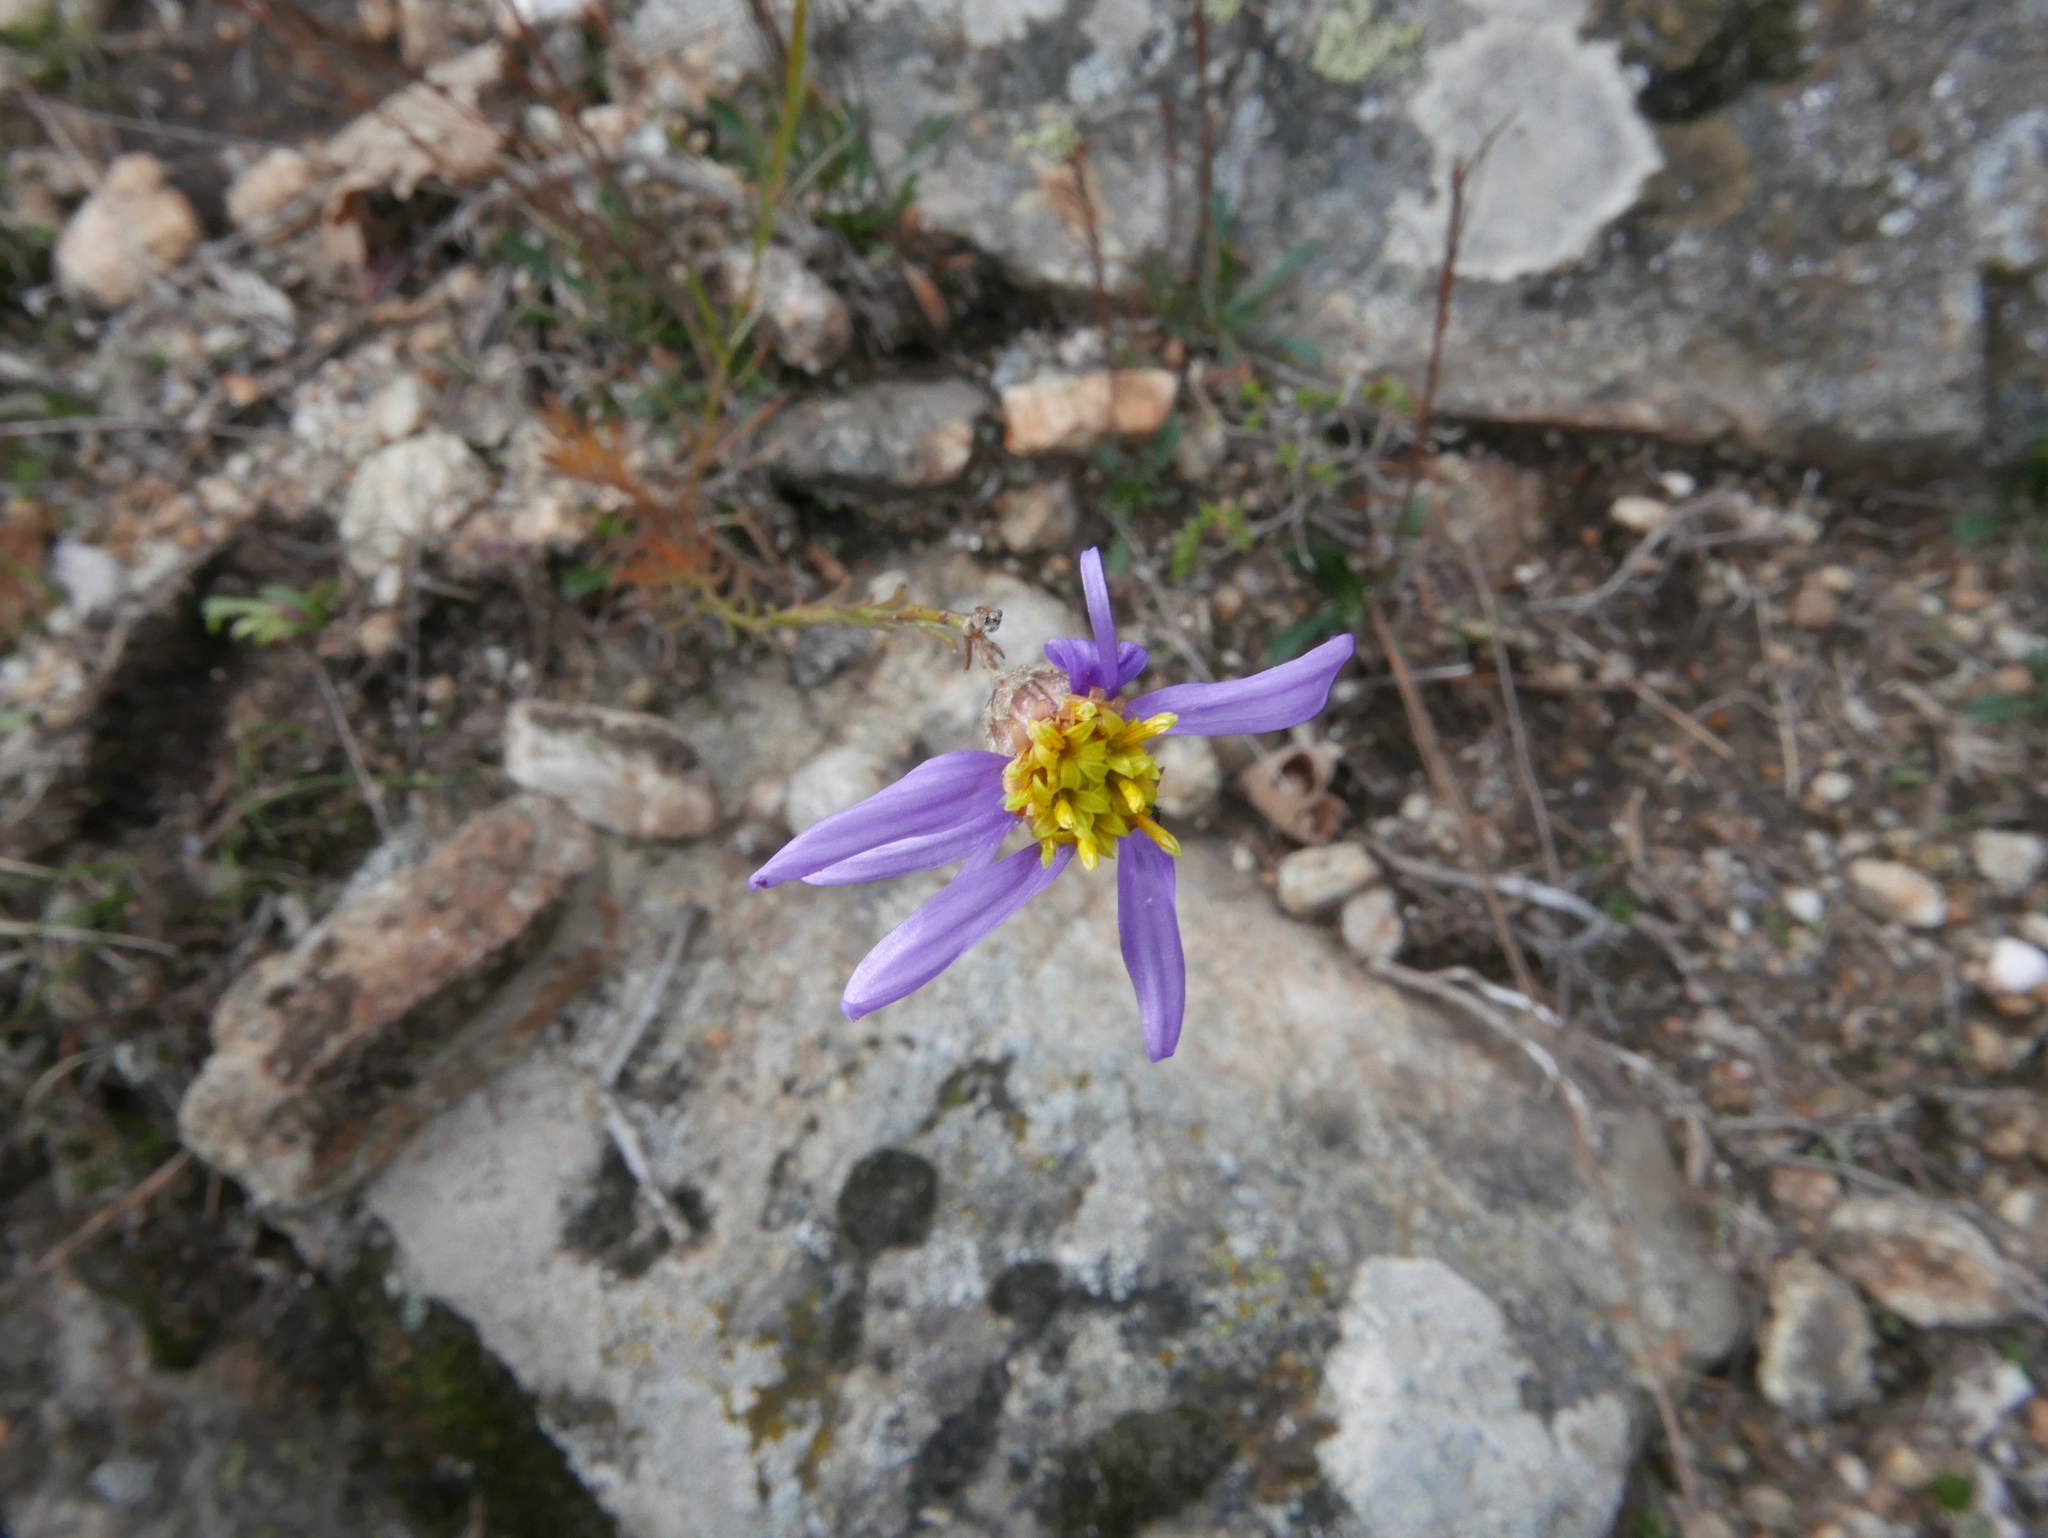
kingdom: Plantae
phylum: Tracheophyta
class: Magnoliopsida
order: Asterales
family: Asteraceae
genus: Galatella
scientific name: Galatella sedifolia
